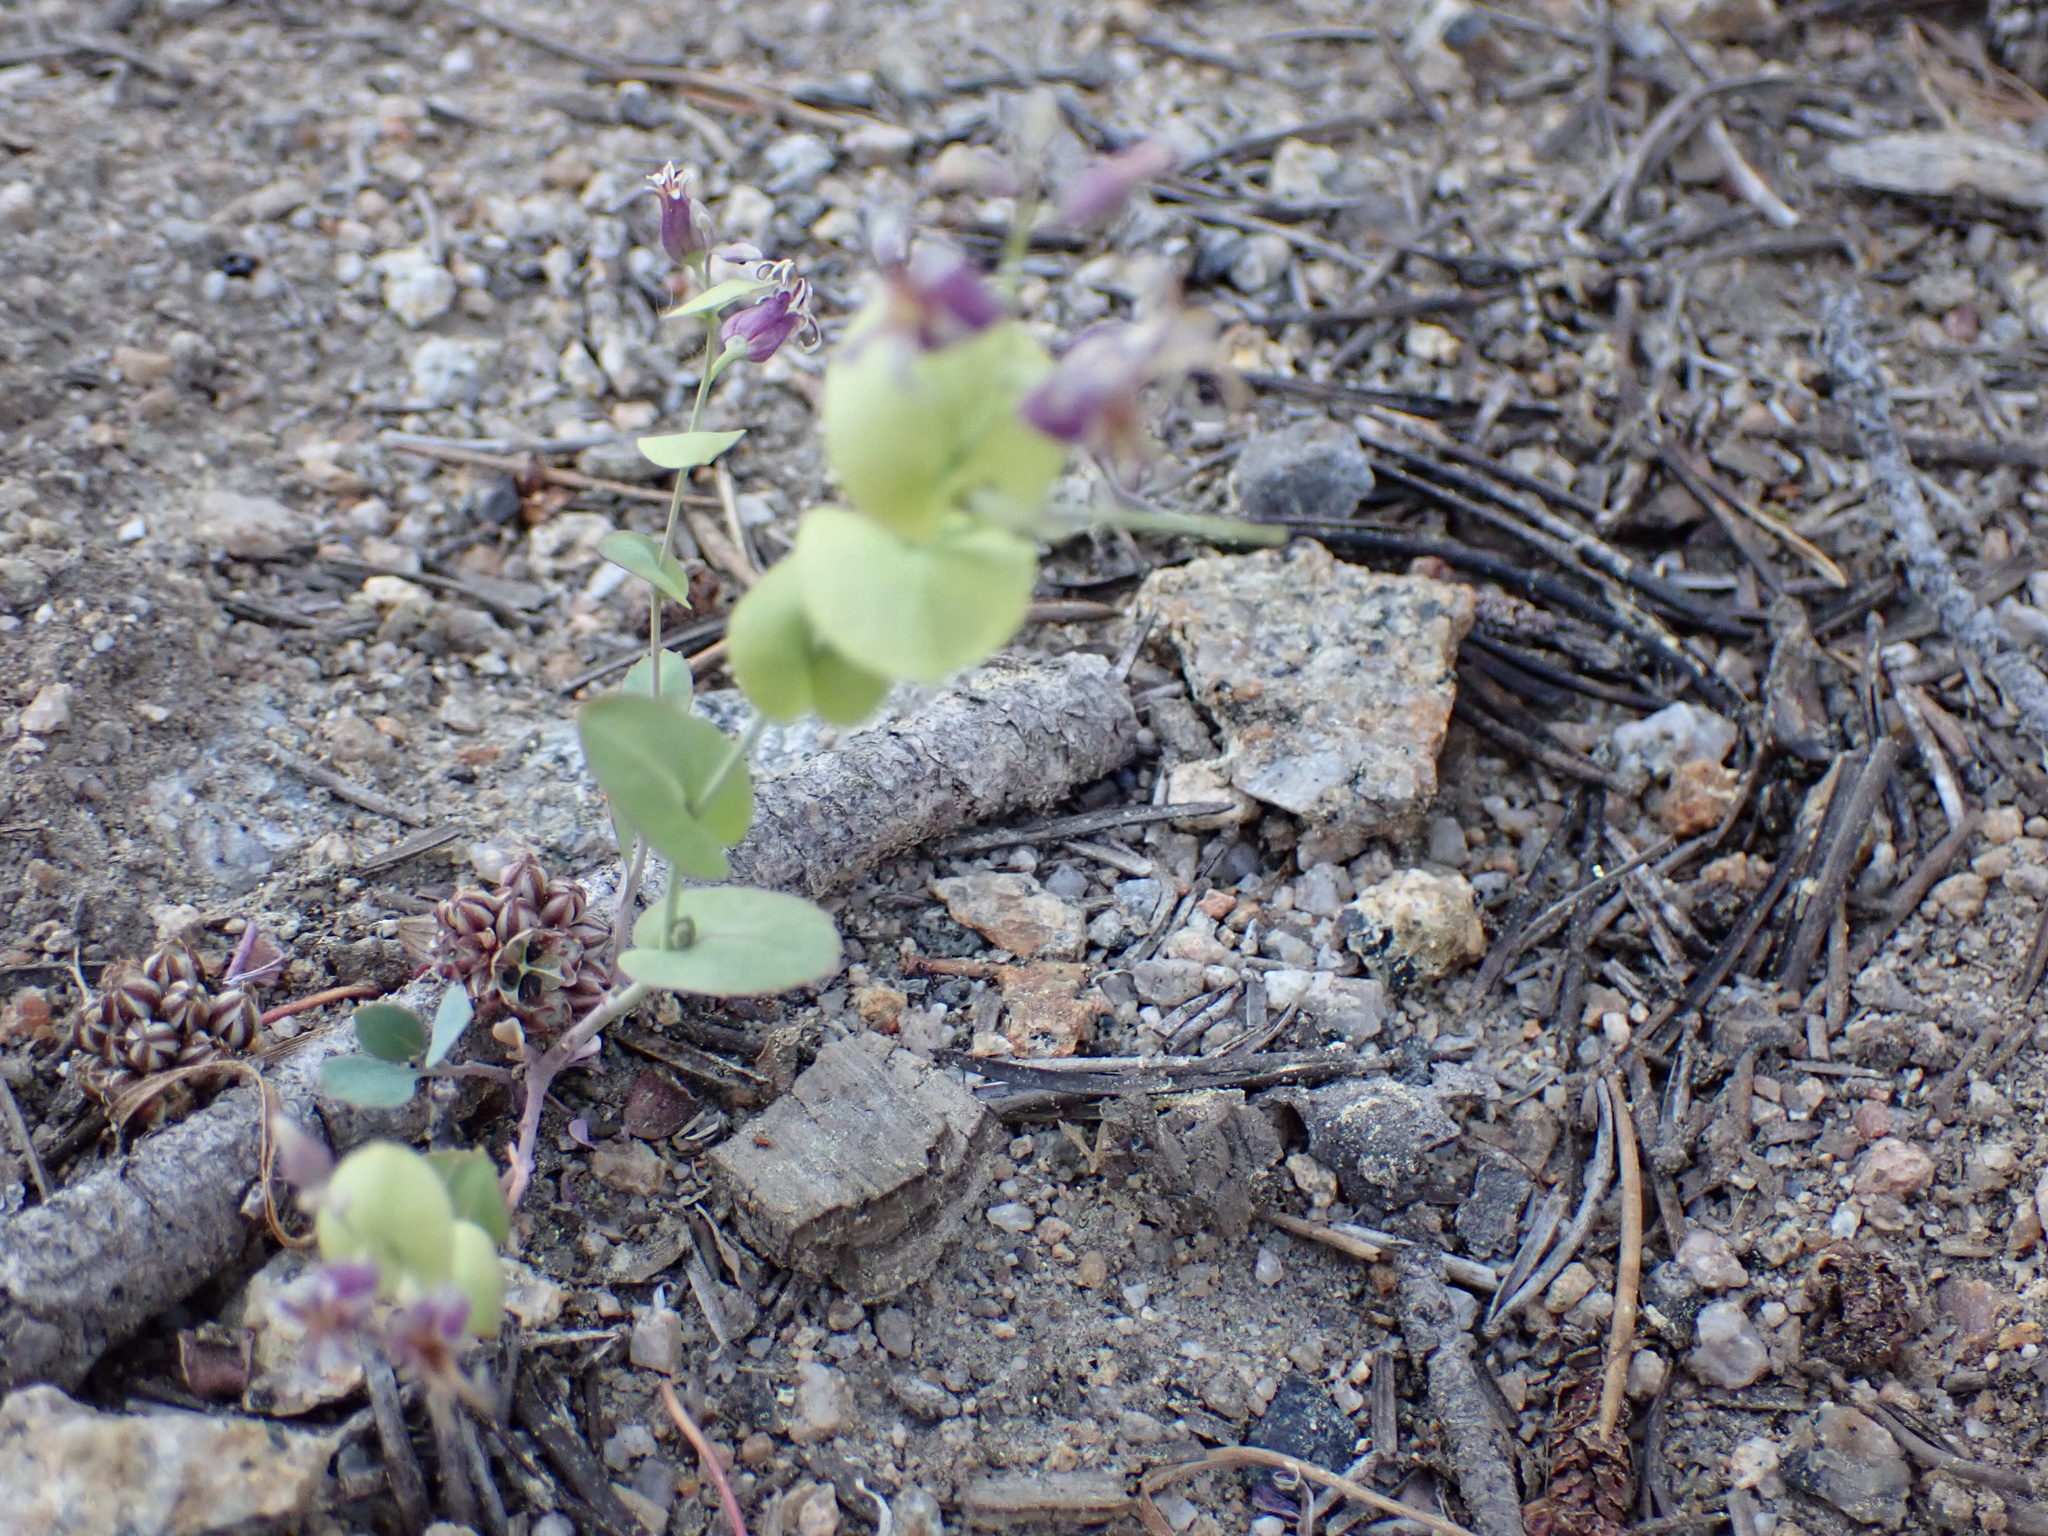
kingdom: Plantae
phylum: Tracheophyta
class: Magnoliopsida
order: Brassicales
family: Brassicaceae
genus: Streptanthus
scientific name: Streptanthus tortuosus
